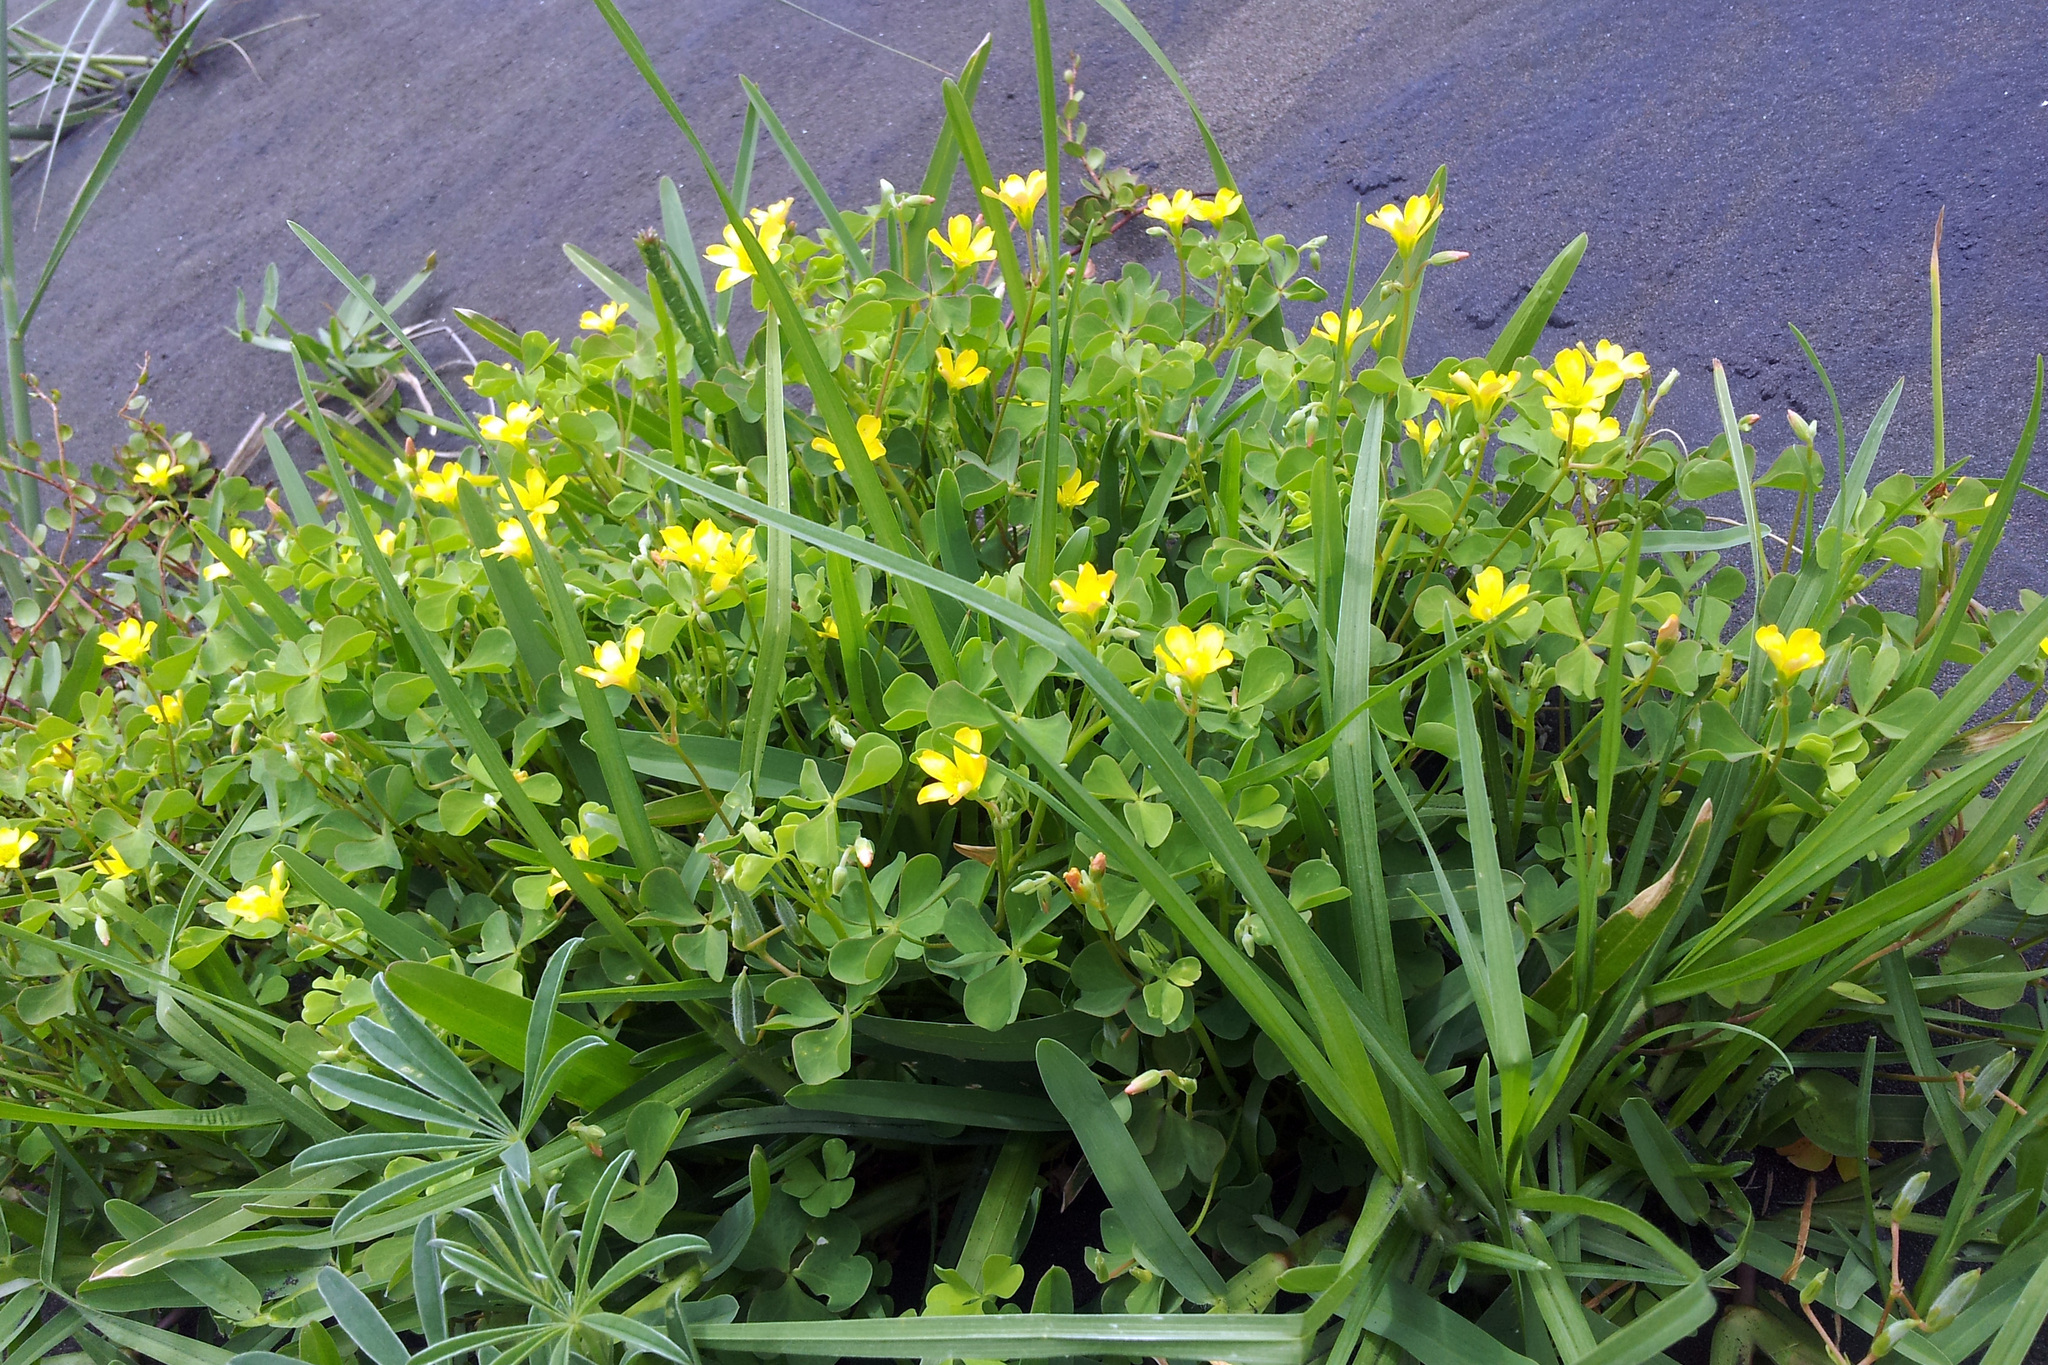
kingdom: Plantae
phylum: Tracheophyta
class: Magnoliopsida
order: Oxalidales
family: Oxalidaceae
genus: Oxalis
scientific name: Oxalis rubens
